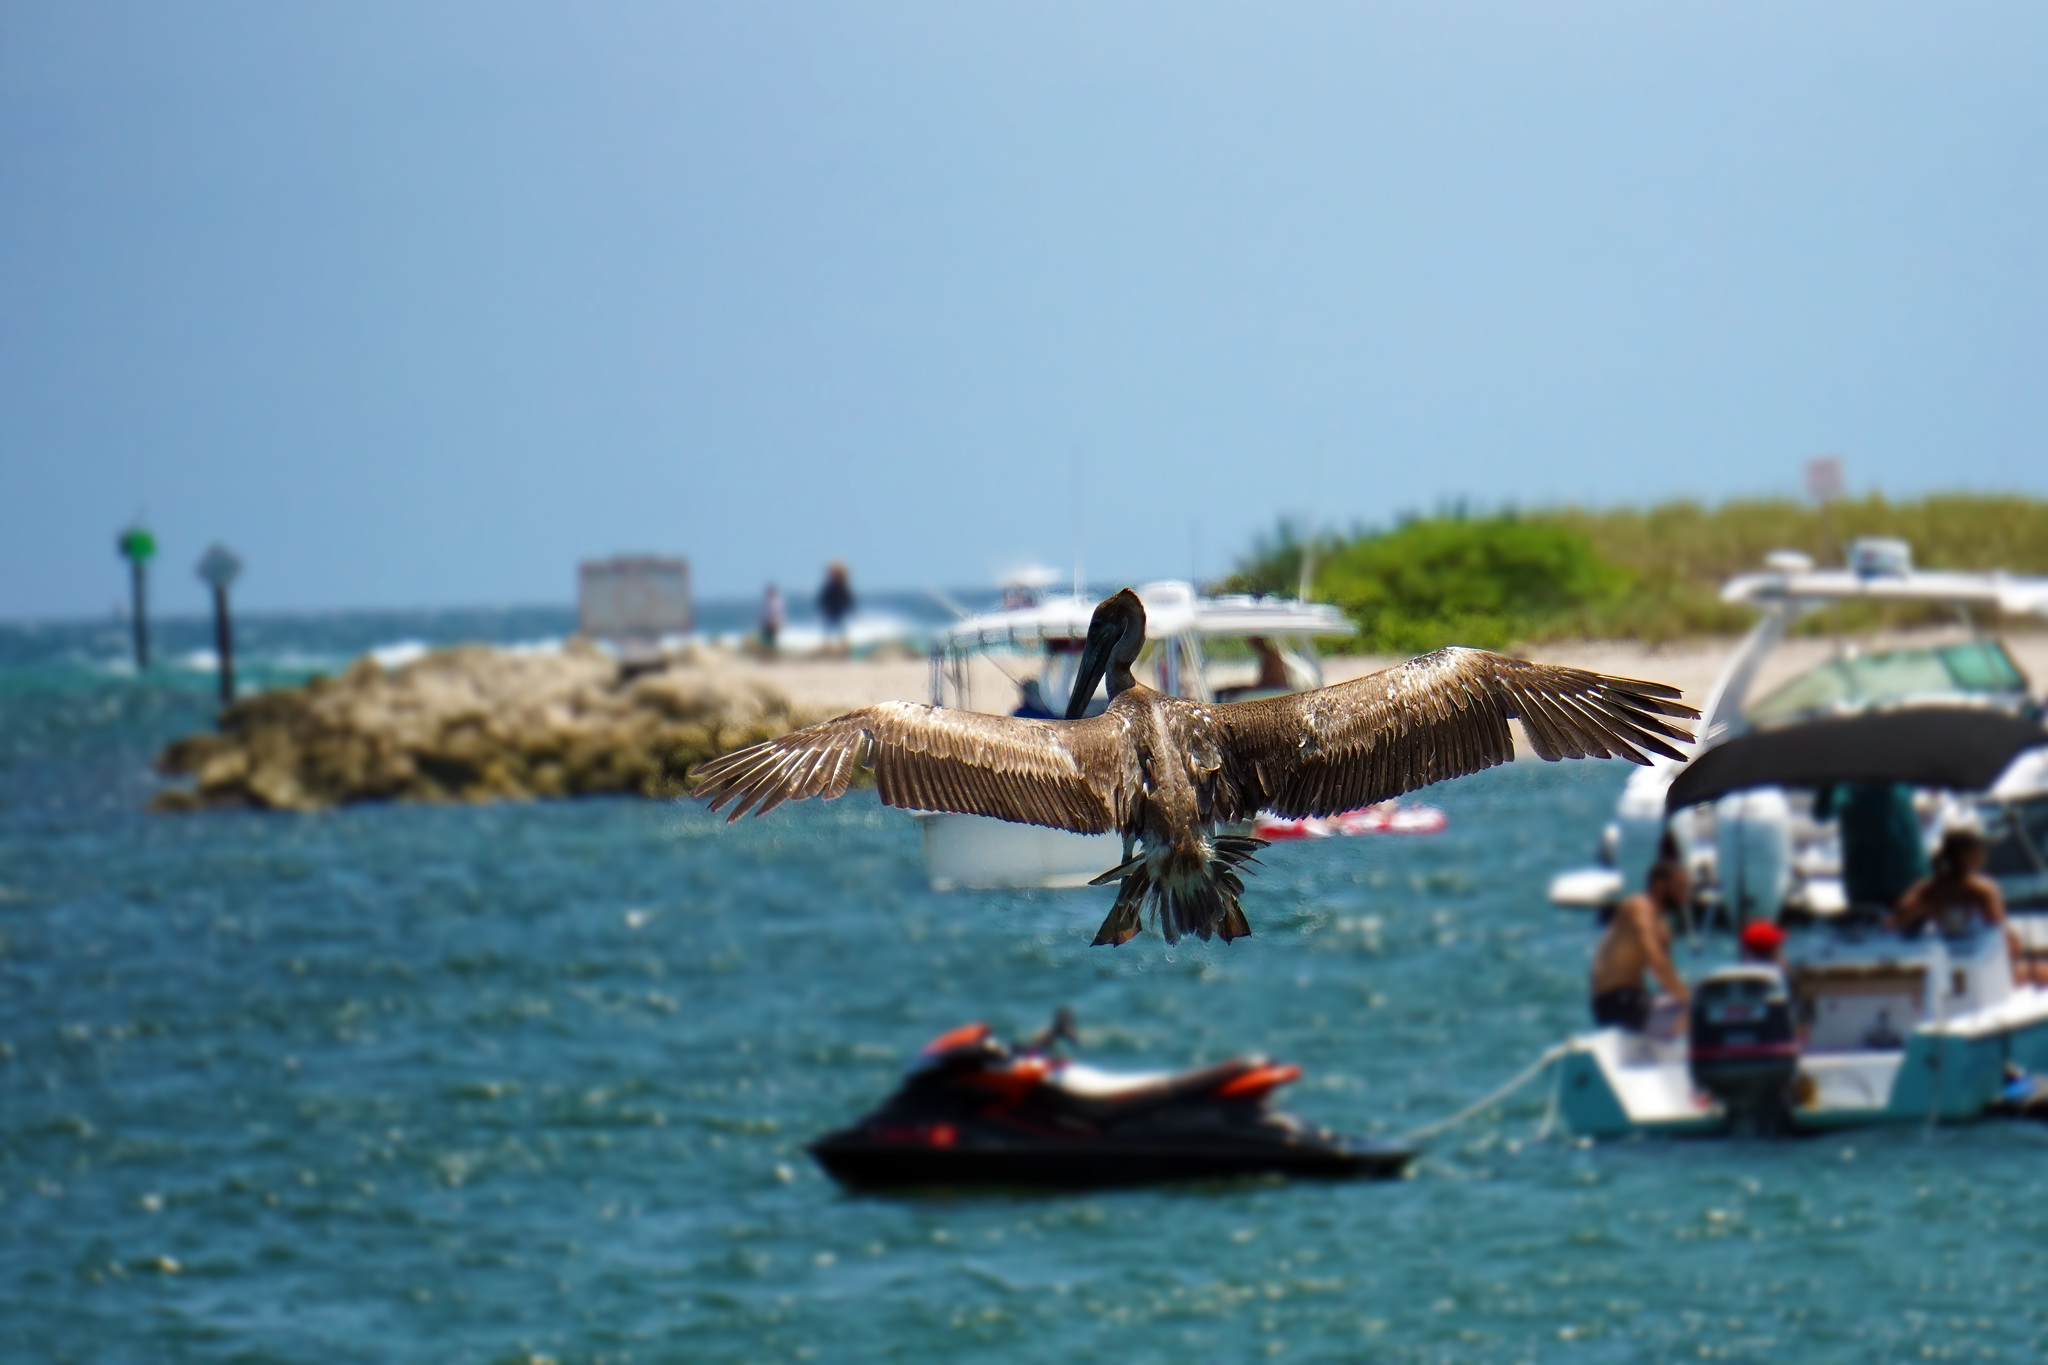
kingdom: Animalia
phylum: Chordata
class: Aves
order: Pelecaniformes
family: Pelecanidae
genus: Pelecanus
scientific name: Pelecanus occidentalis
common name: Brown pelican
